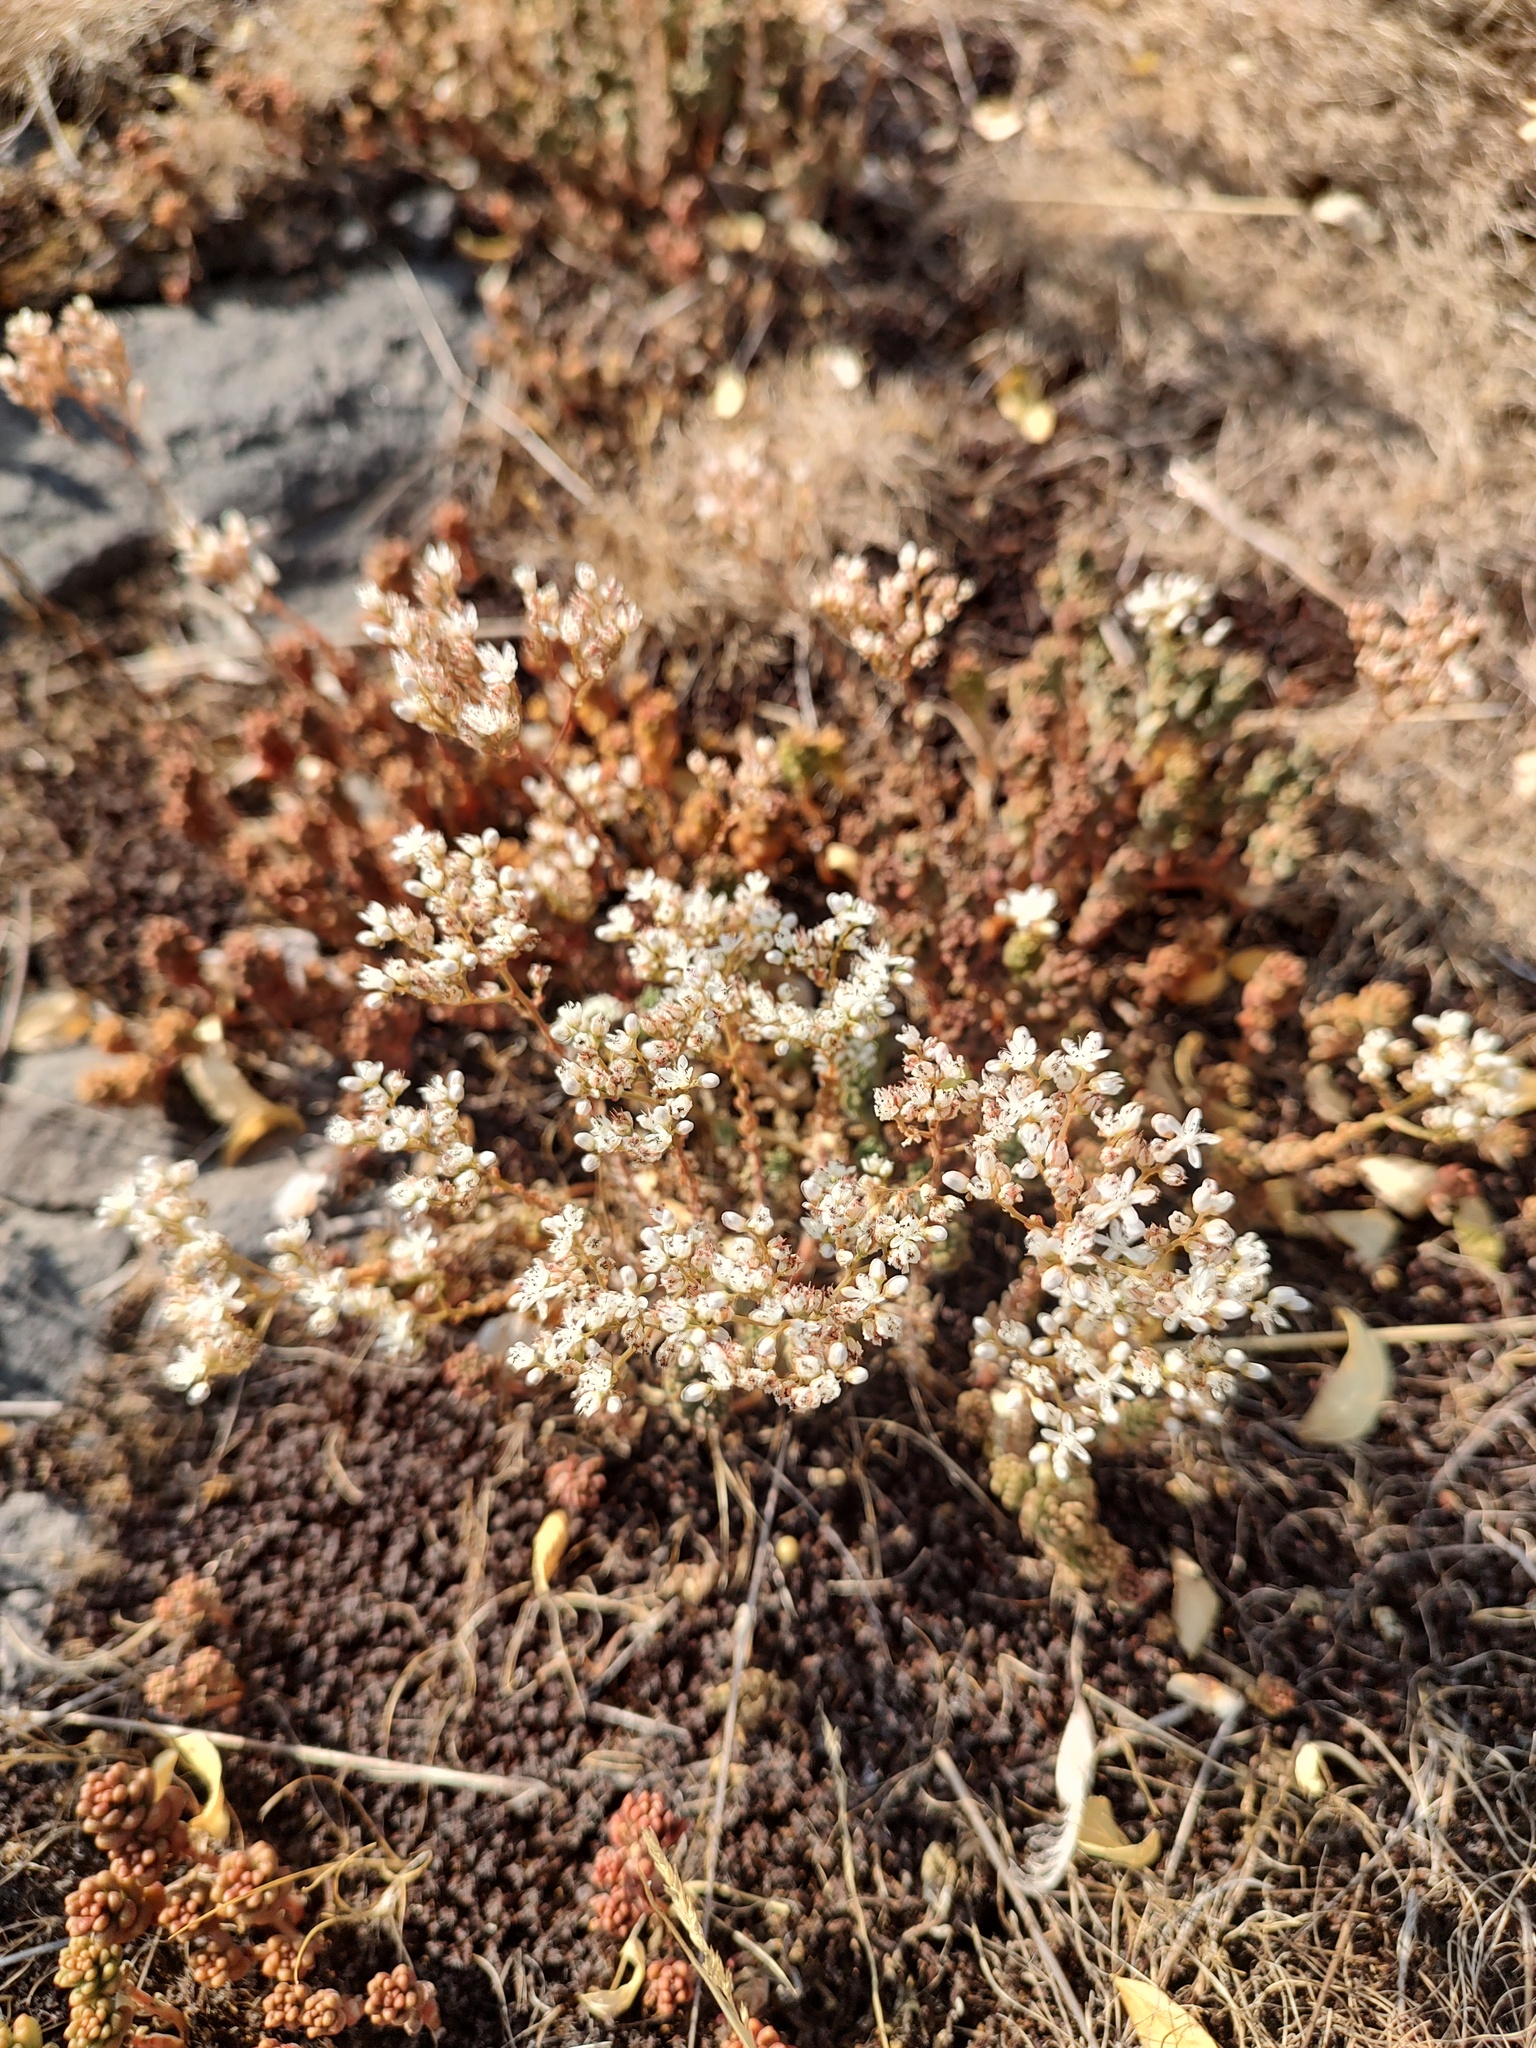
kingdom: Plantae
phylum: Tracheophyta
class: Magnoliopsida
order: Saxifragales
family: Crassulaceae
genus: Sedum
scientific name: Sedum album
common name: White stonecrop
